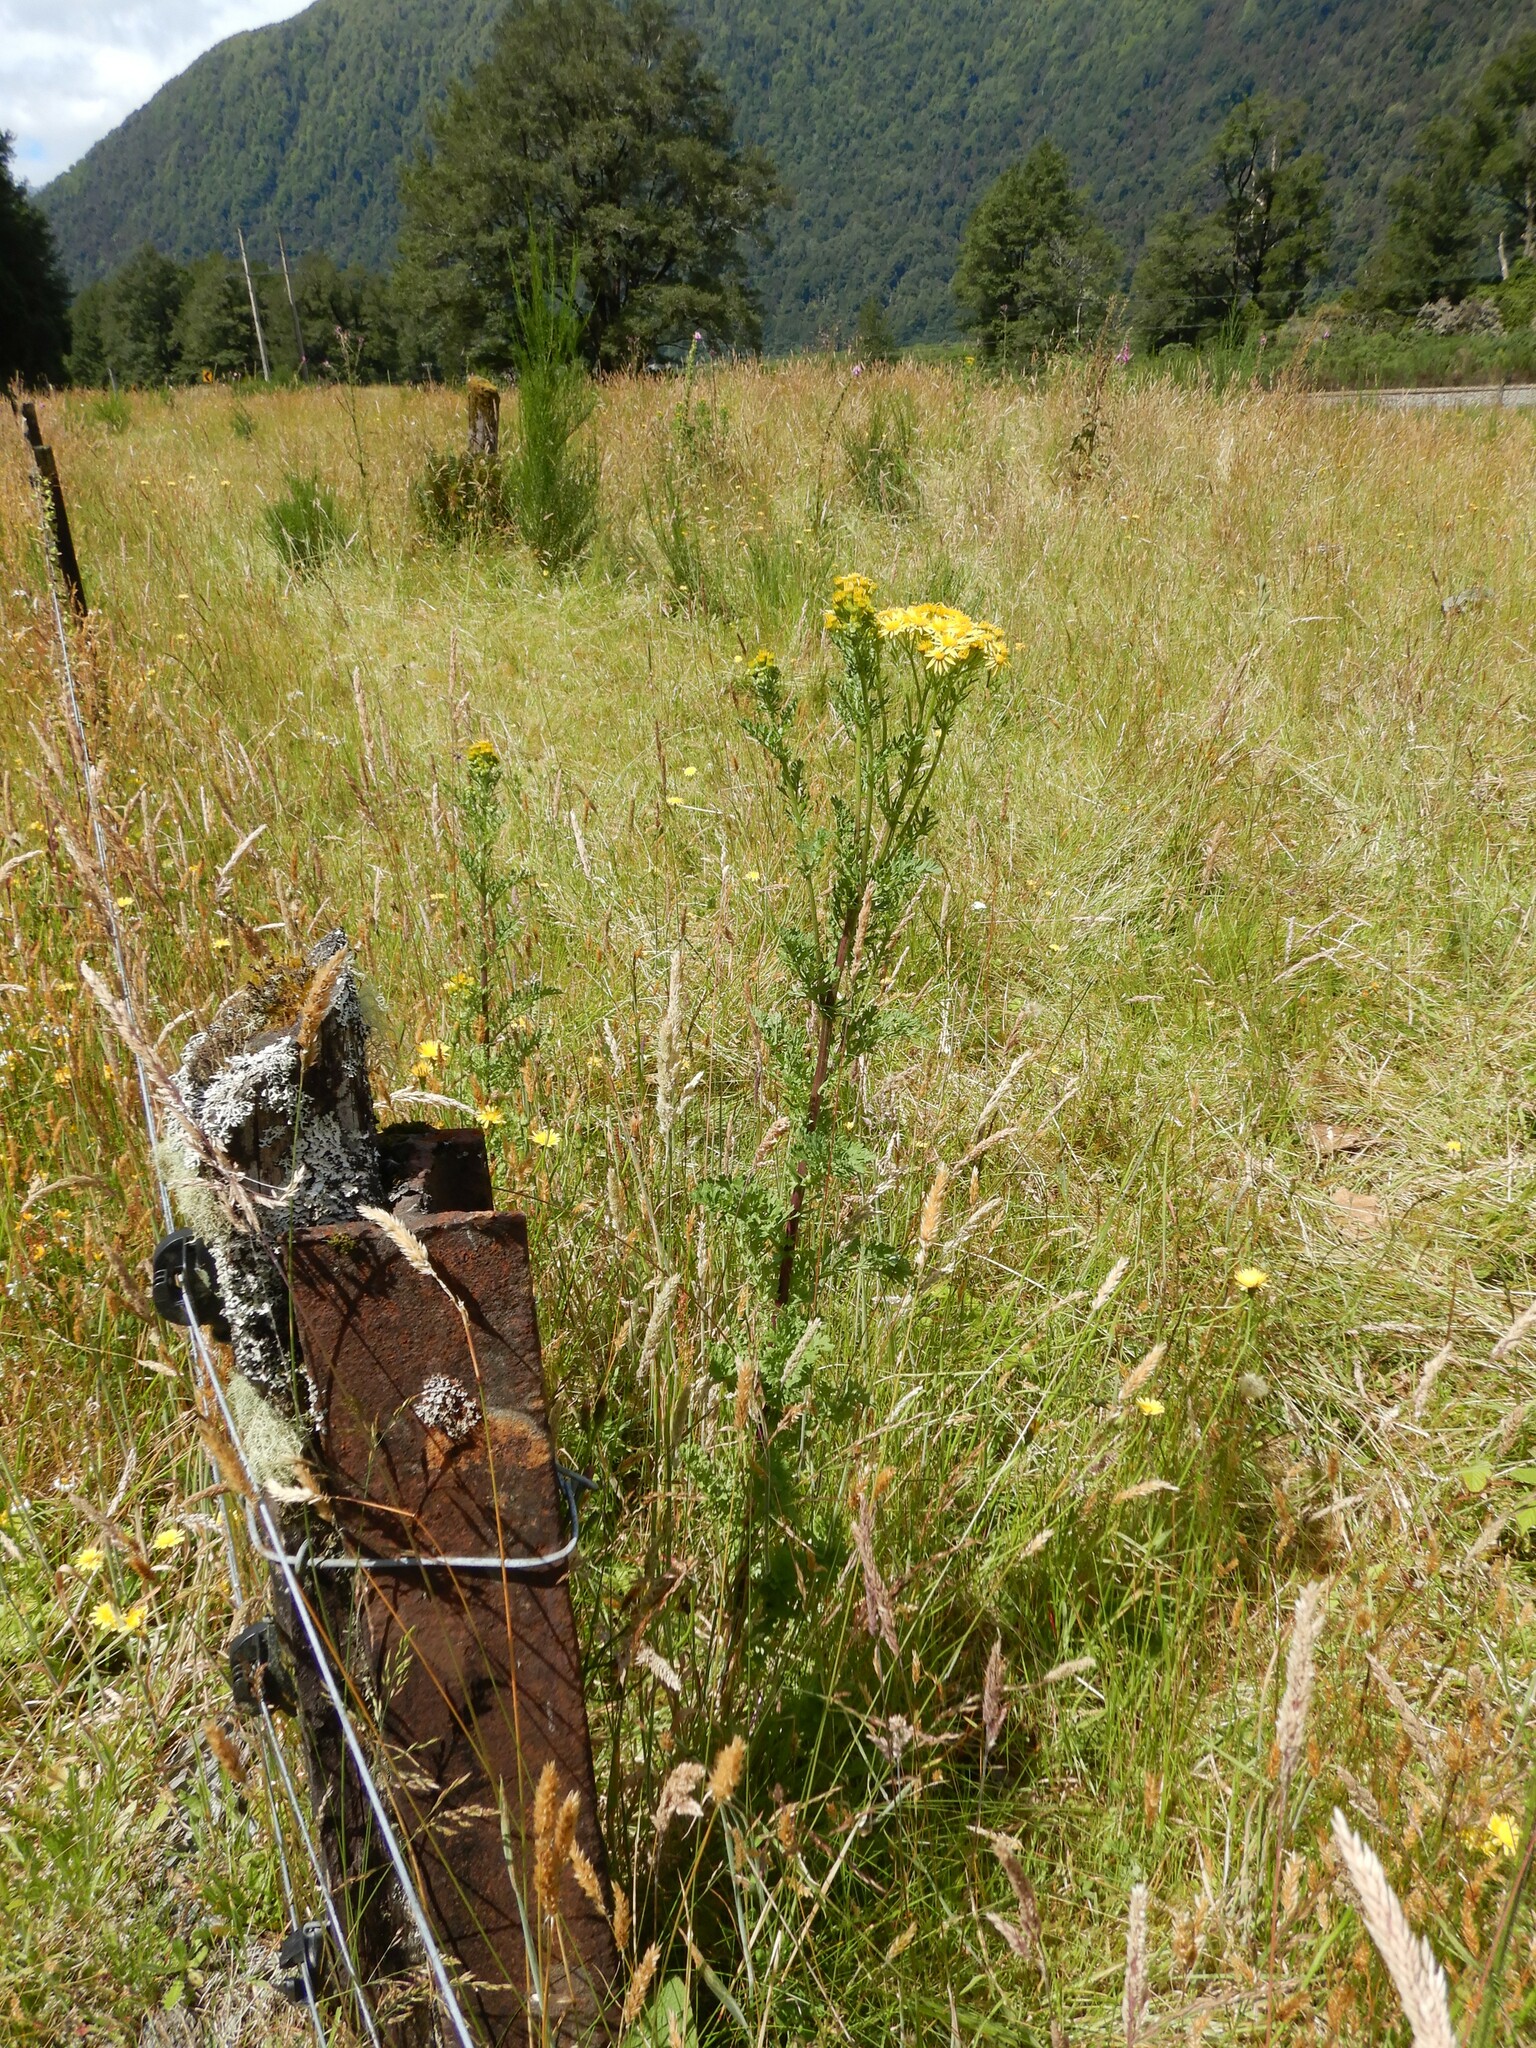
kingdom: Plantae
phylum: Tracheophyta
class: Magnoliopsida
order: Asterales
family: Asteraceae
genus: Jacobaea
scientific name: Jacobaea vulgaris
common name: Stinking willie
